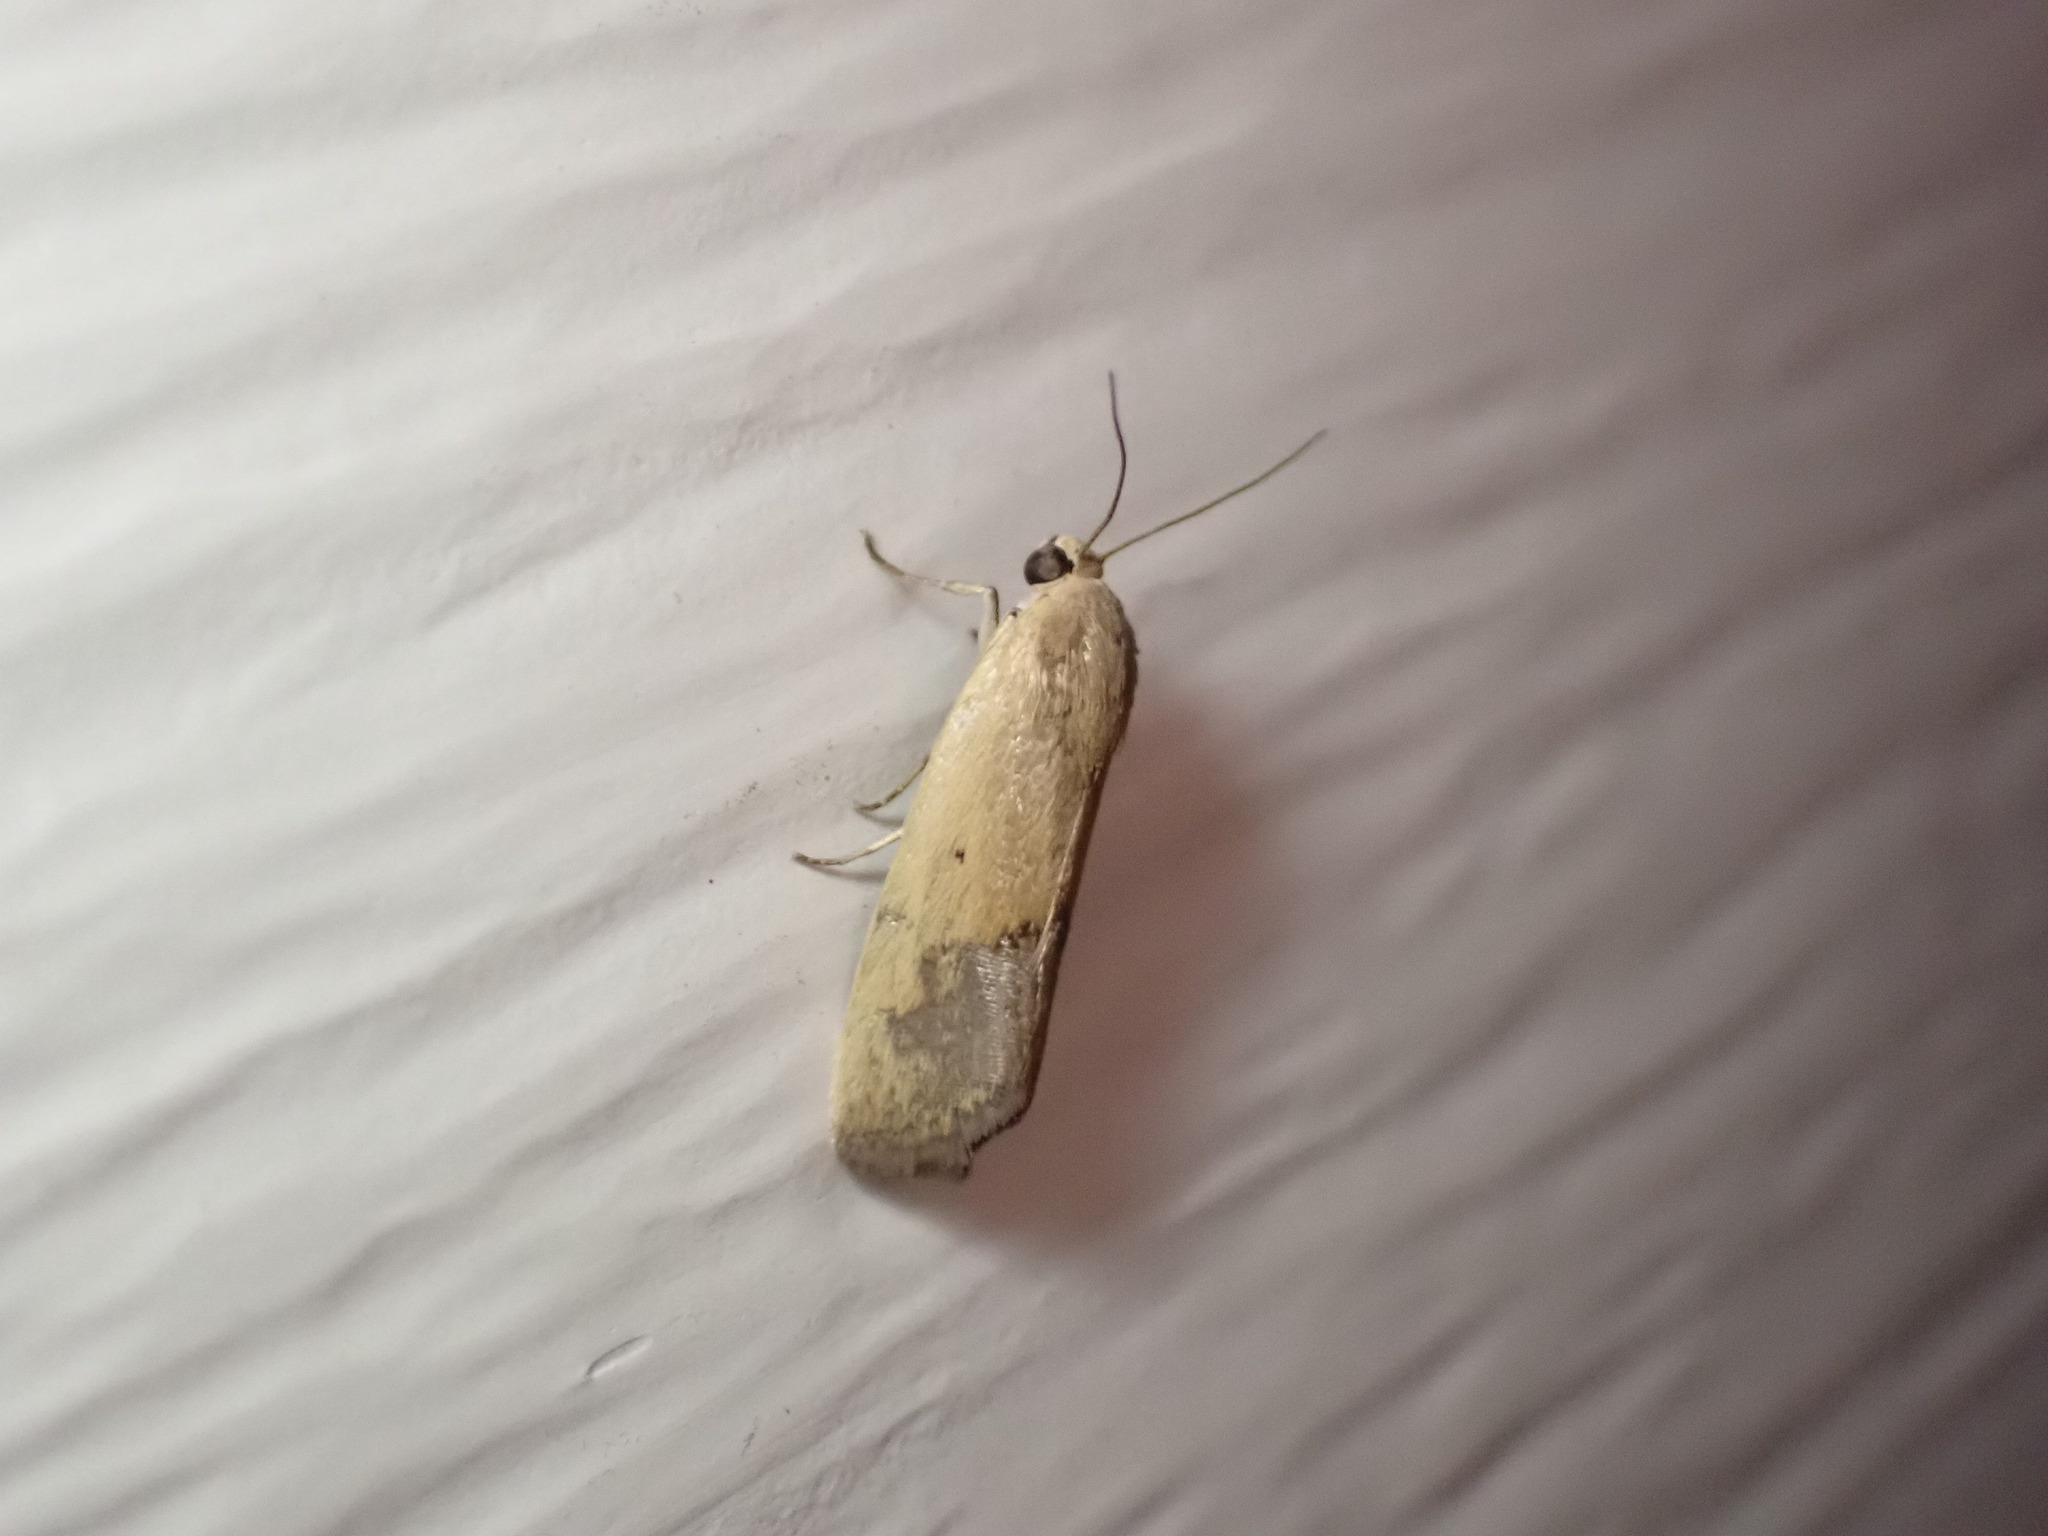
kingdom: Animalia
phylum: Arthropoda
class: Insecta
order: Lepidoptera
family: Noctuidae
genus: Acontia
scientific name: Acontia tortricina
